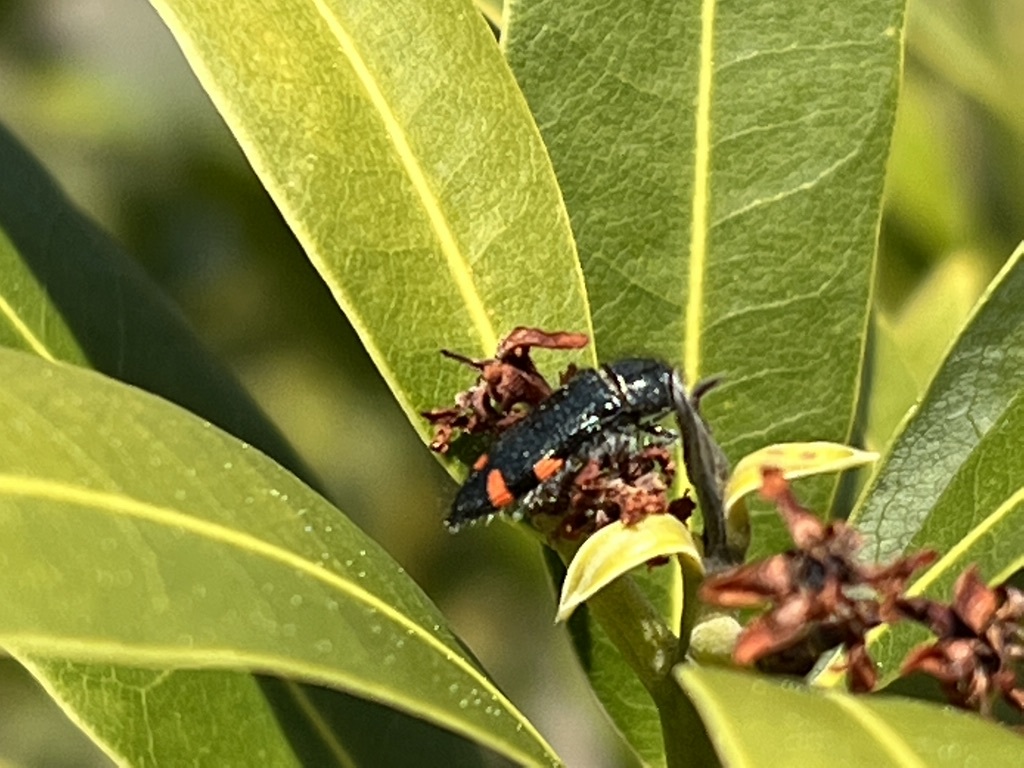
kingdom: Animalia
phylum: Arthropoda
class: Insecta
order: Coleoptera
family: Buprestidae
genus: Acmaeodera
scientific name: Acmaeodera mariposa
